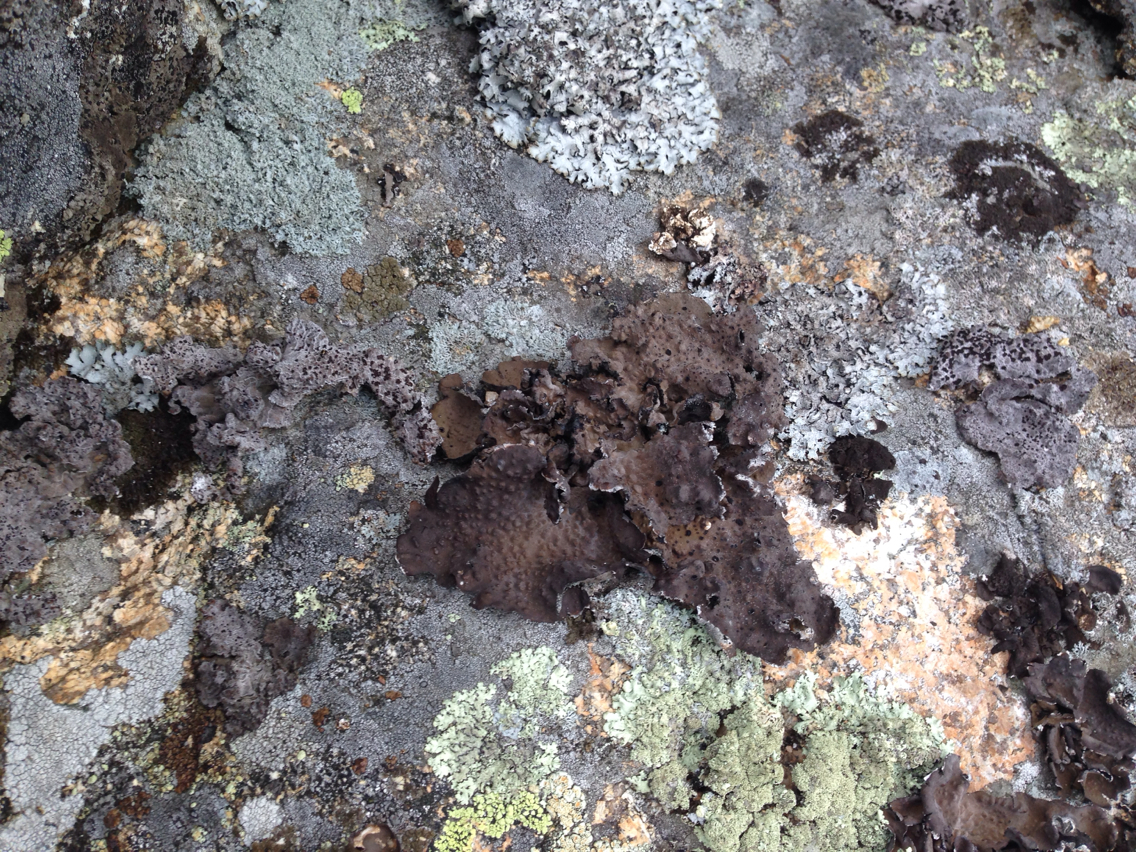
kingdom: Fungi
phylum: Ascomycota
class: Lecanoromycetes
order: Umbilicariales
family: Umbilicariaceae
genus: Lasallia
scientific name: Lasallia papulosa
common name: Common toadskin lichen
